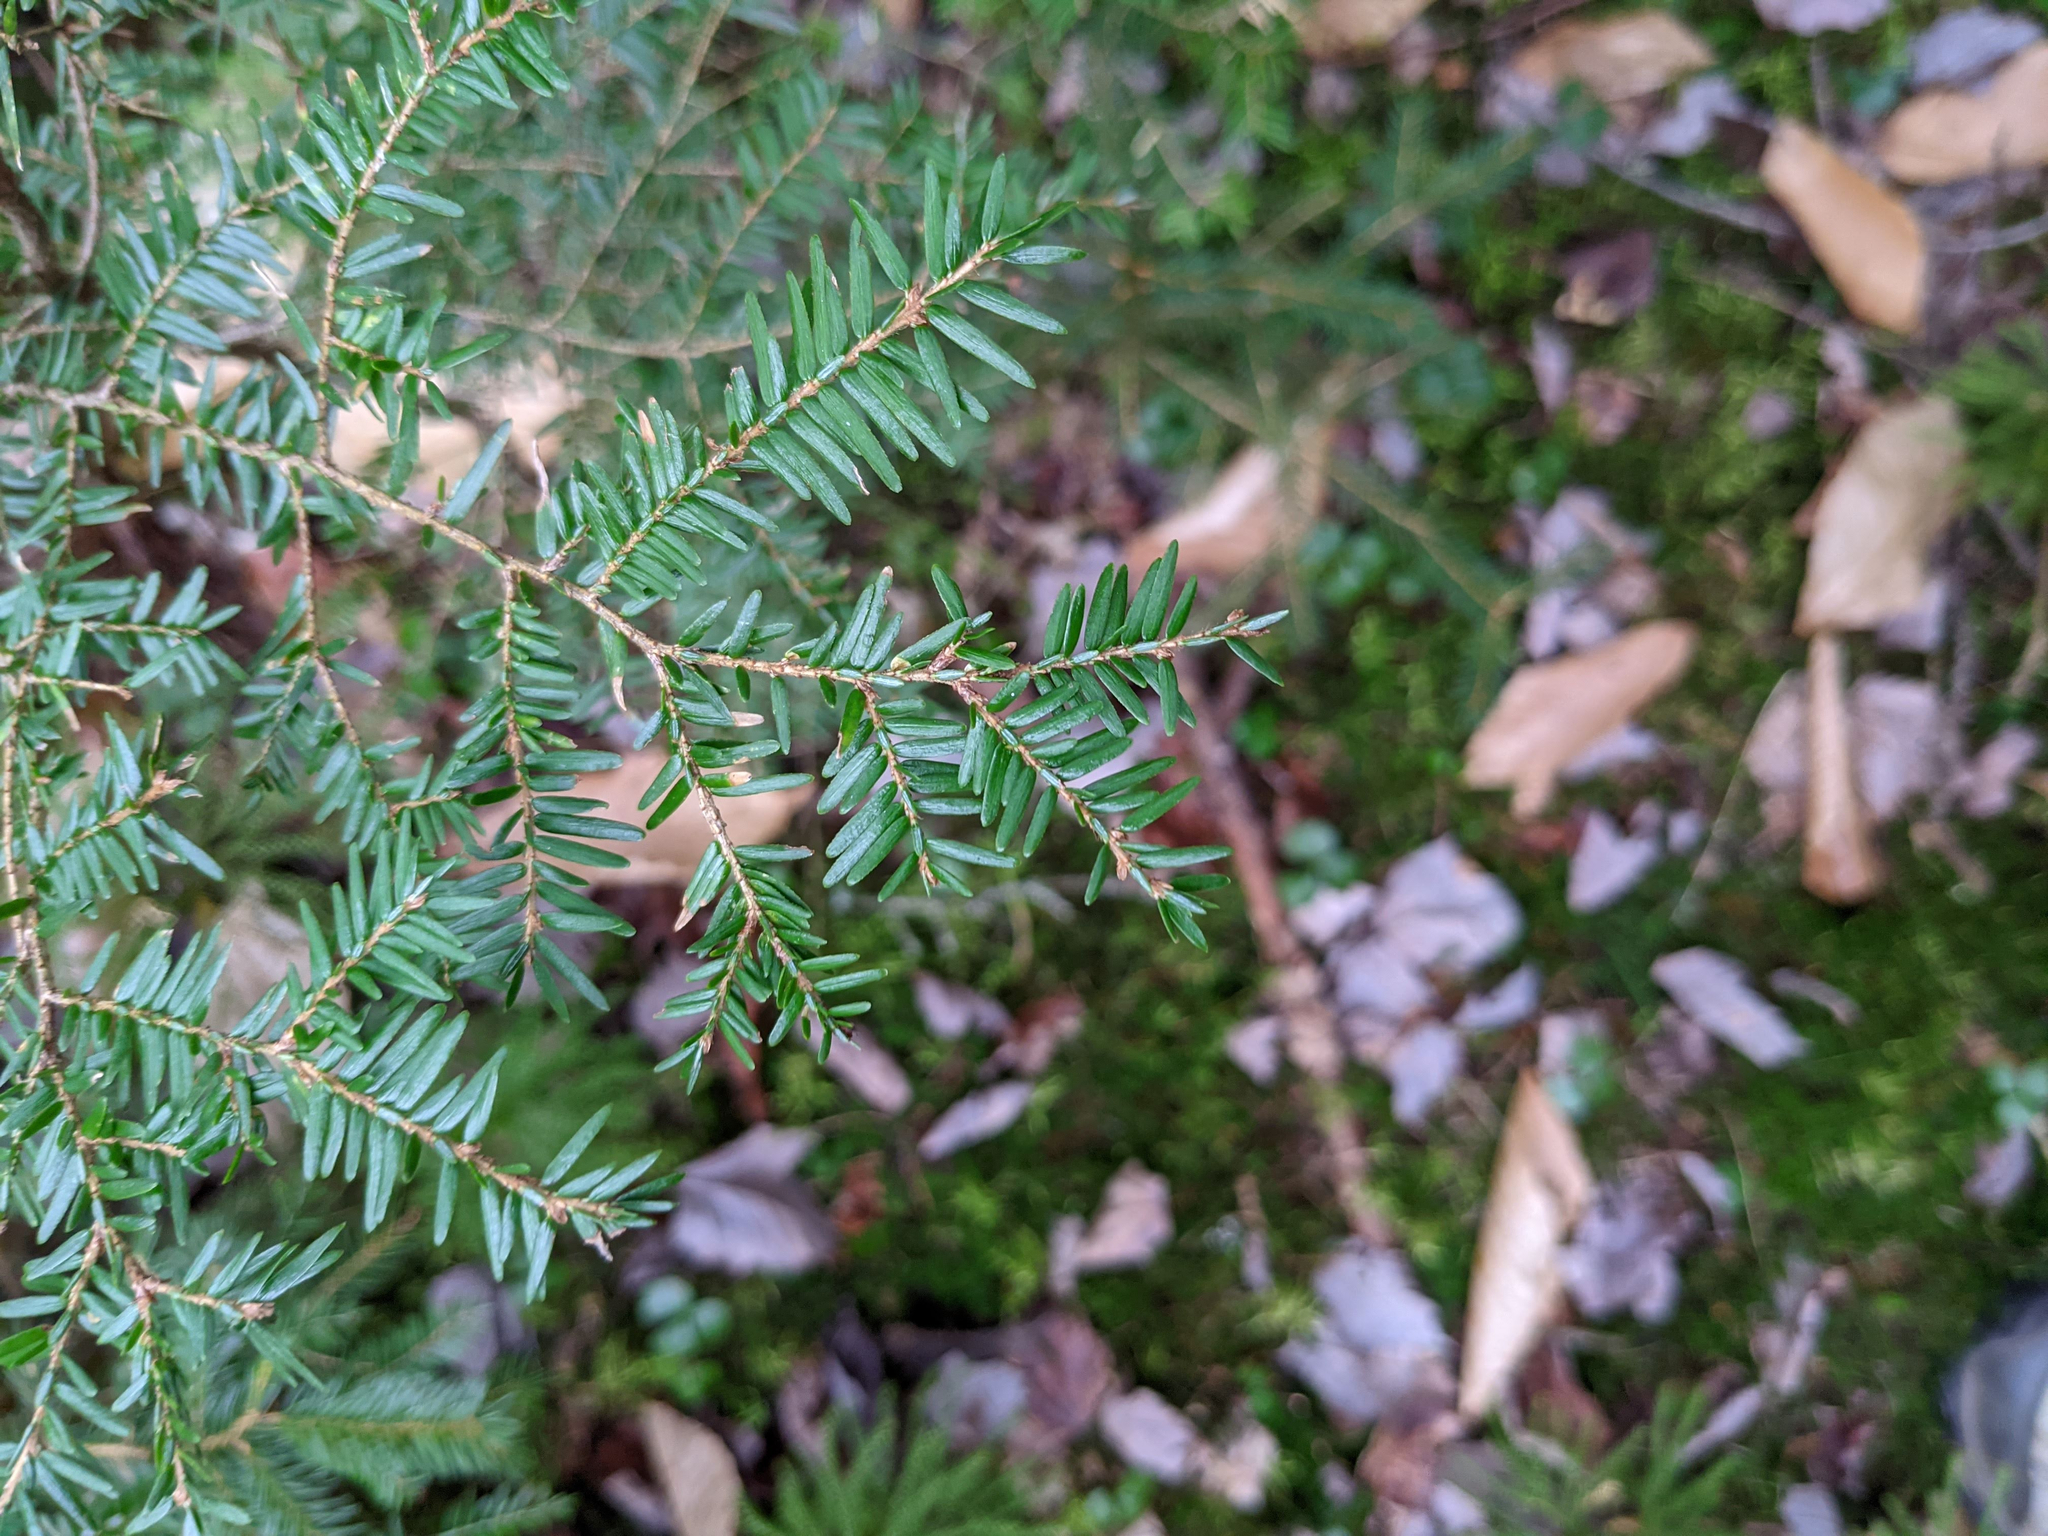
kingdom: Plantae
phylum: Tracheophyta
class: Pinopsida
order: Pinales
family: Pinaceae
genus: Tsuga
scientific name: Tsuga canadensis
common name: Eastern hemlock
